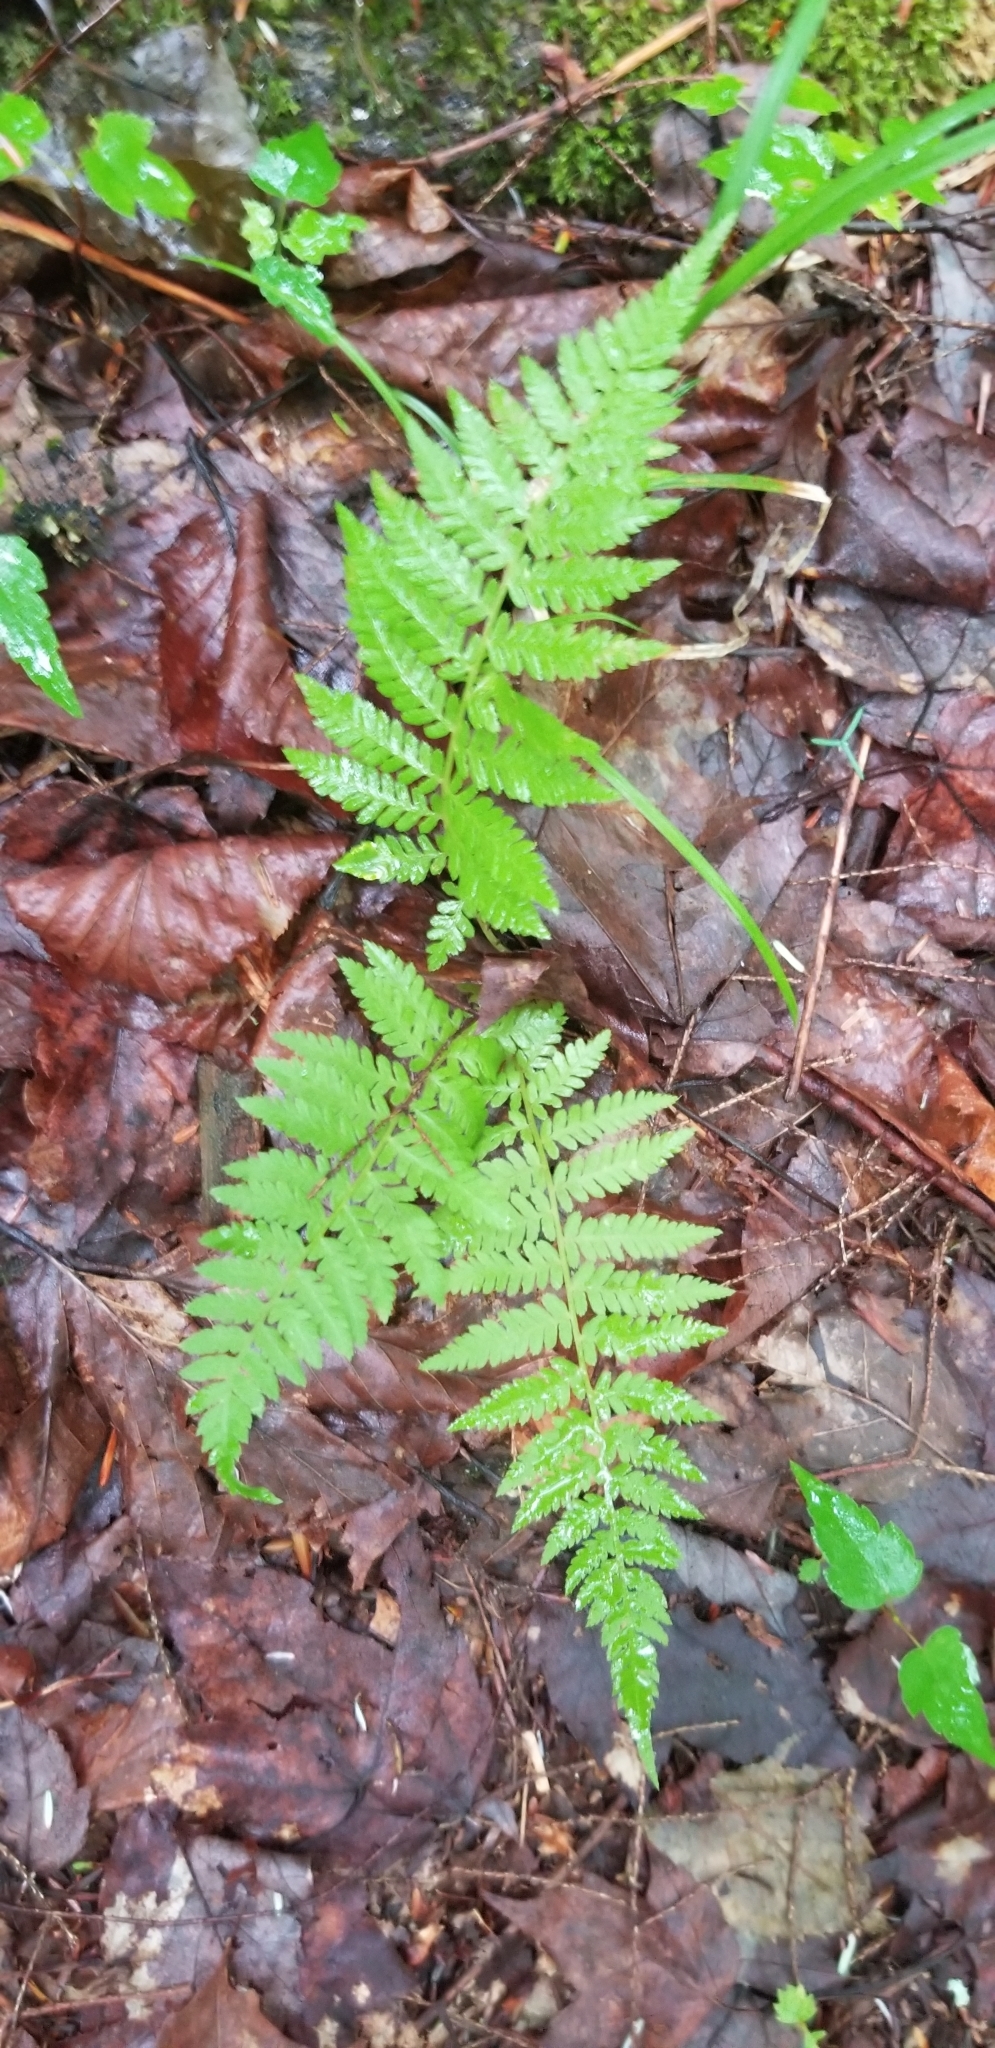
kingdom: Plantae
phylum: Tracheophyta
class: Polypodiopsida
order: Polypodiales
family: Athyriaceae
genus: Athyrium
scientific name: Athyrium angustum
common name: Northern lady fern
